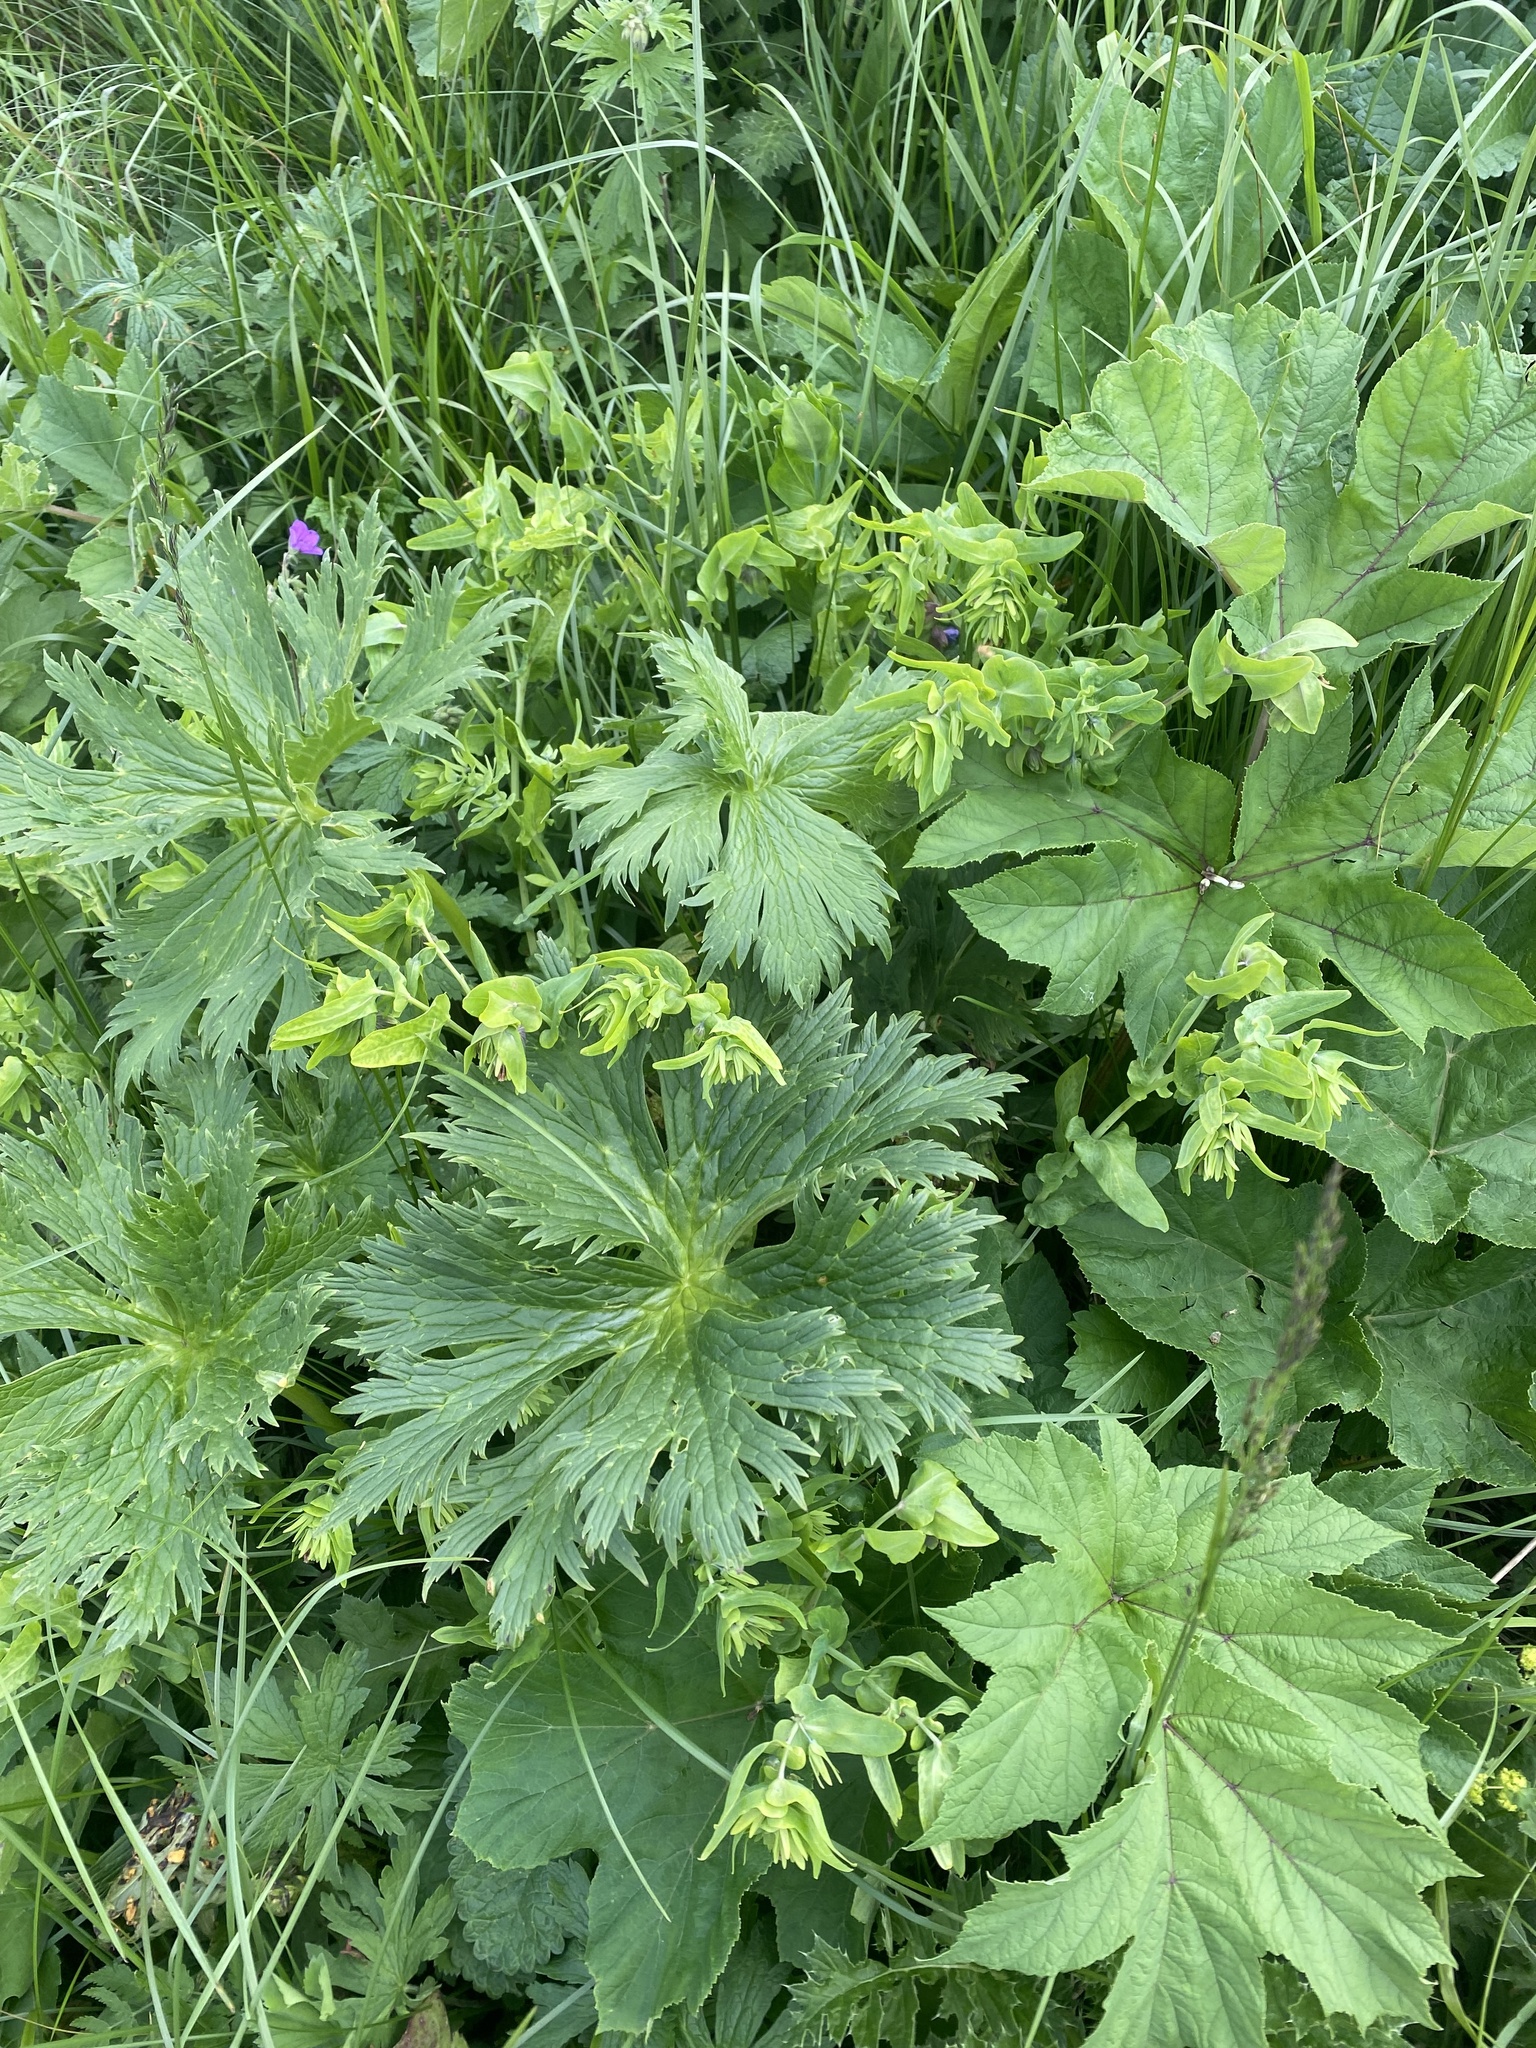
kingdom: Plantae
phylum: Tracheophyta
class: Magnoliopsida
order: Boraginales
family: Boraginaceae
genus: Cerinthe
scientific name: Cerinthe minor
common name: Lesser honeywort
